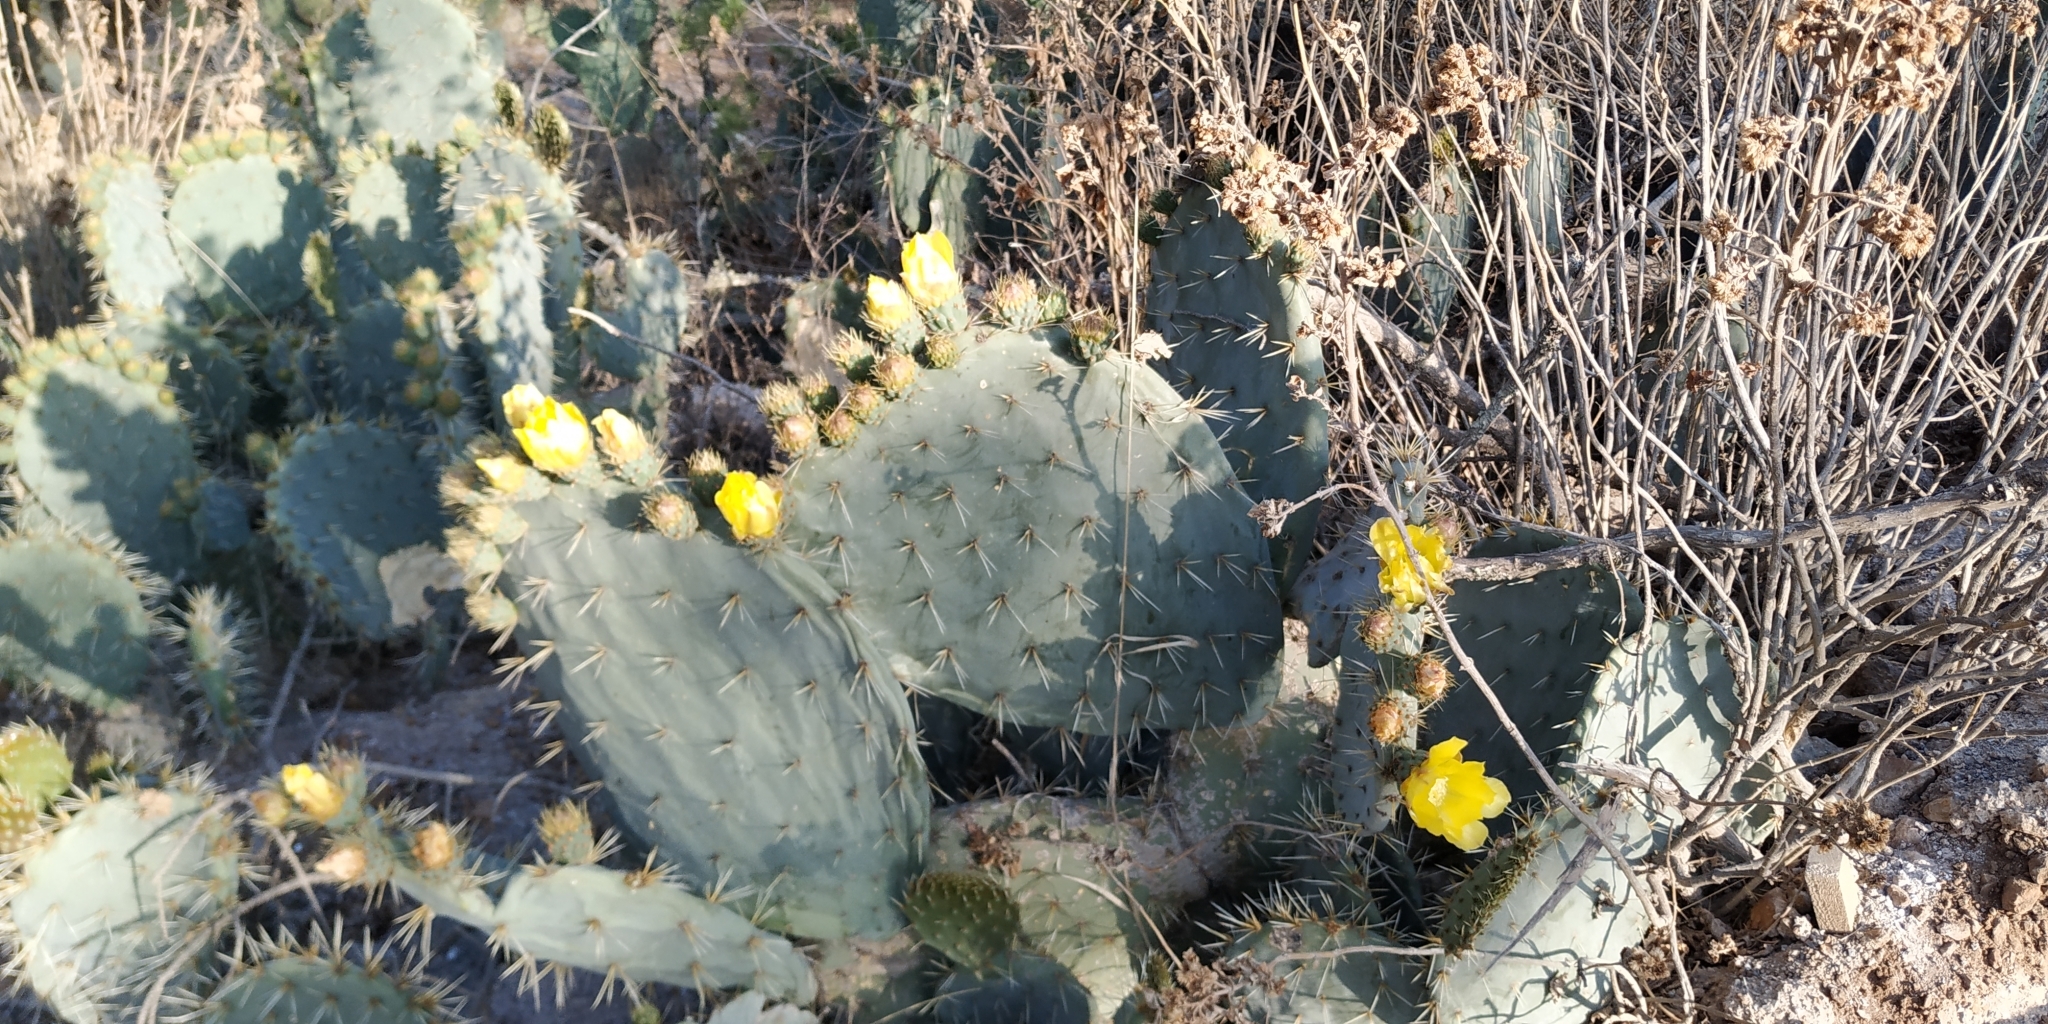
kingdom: Plantae
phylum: Tracheophyta
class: Magnoliopsida
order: Caryophyllales
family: Cactaceae
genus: Opuntia
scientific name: Opuntia robusta
